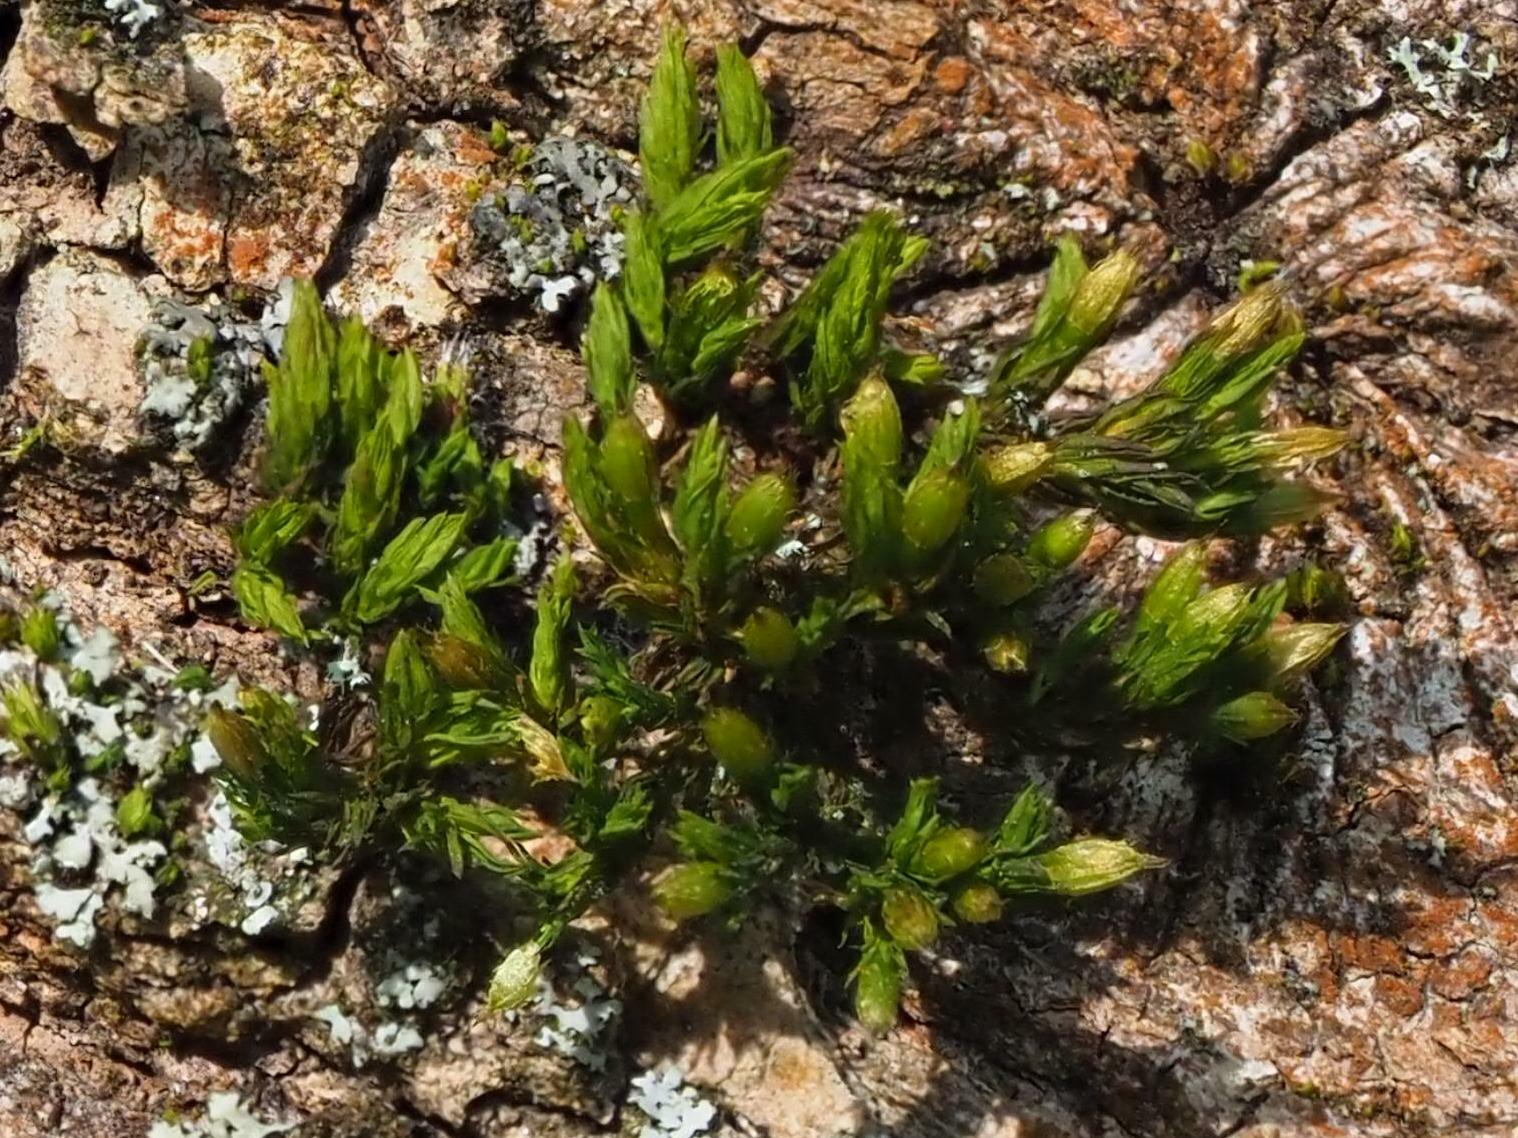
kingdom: Plantae
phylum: Bryophyta
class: Bryopsida
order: Orthotrichales
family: Orthotrichaceae
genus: Lewinskya
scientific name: Lewinskya affinis
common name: Wood bristle-moss
